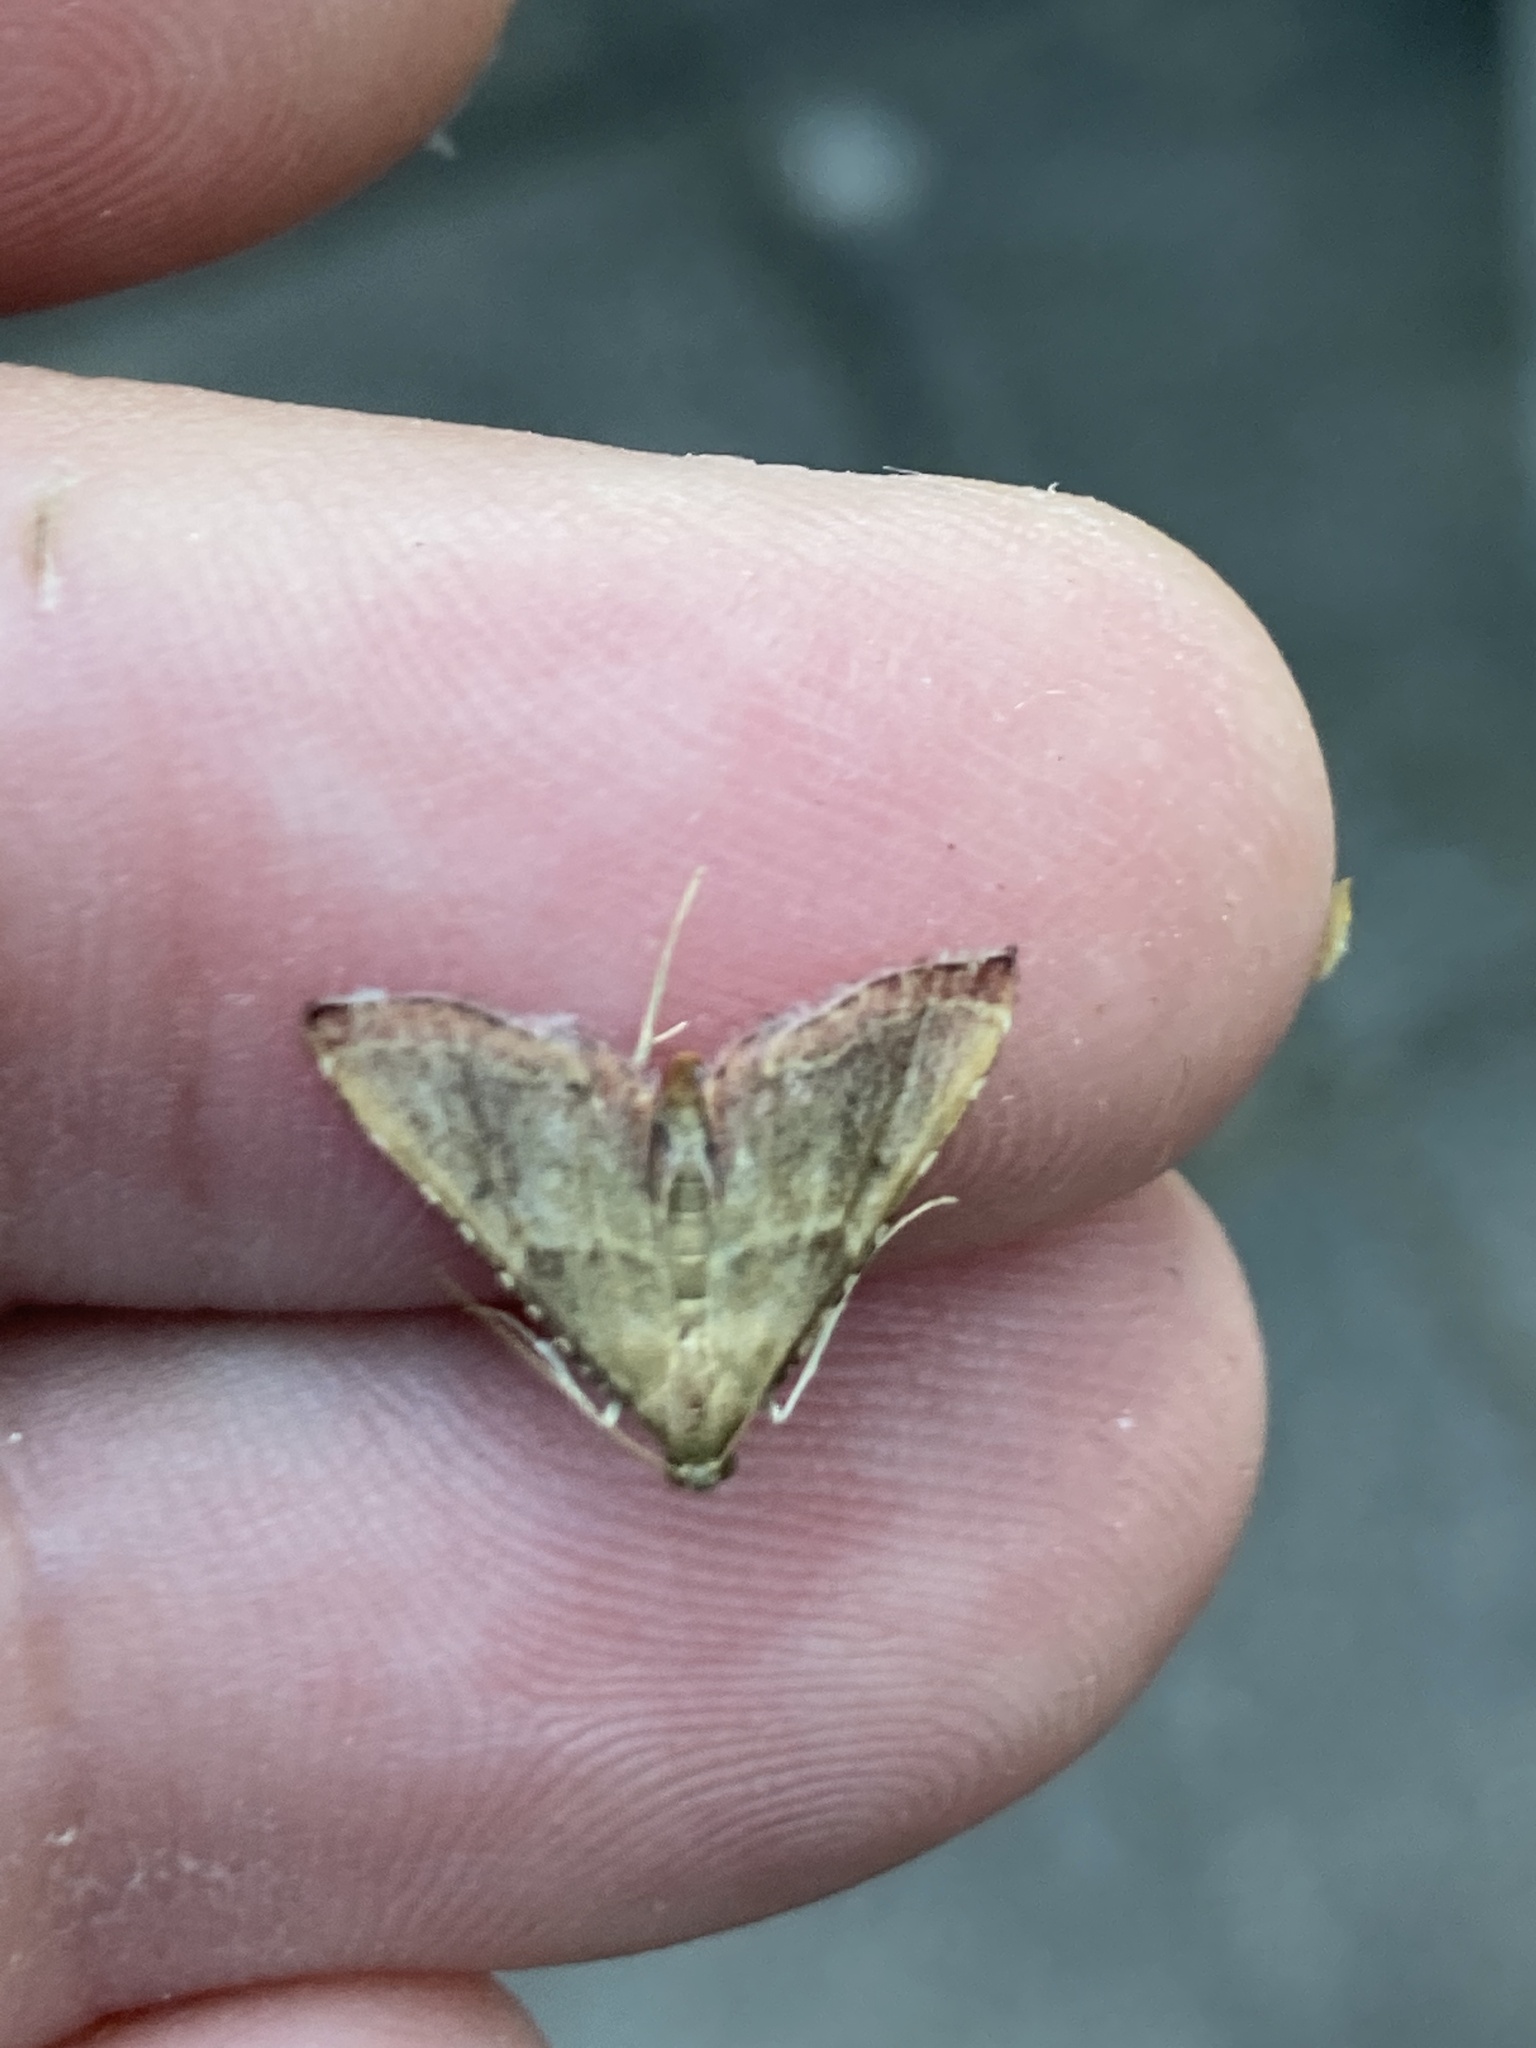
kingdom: Animalia
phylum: Arthropoda
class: Insecta
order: Lepidoptera
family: Pyralidae
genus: Endotricha
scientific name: Endotricha flammealis
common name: Rosy tabby
